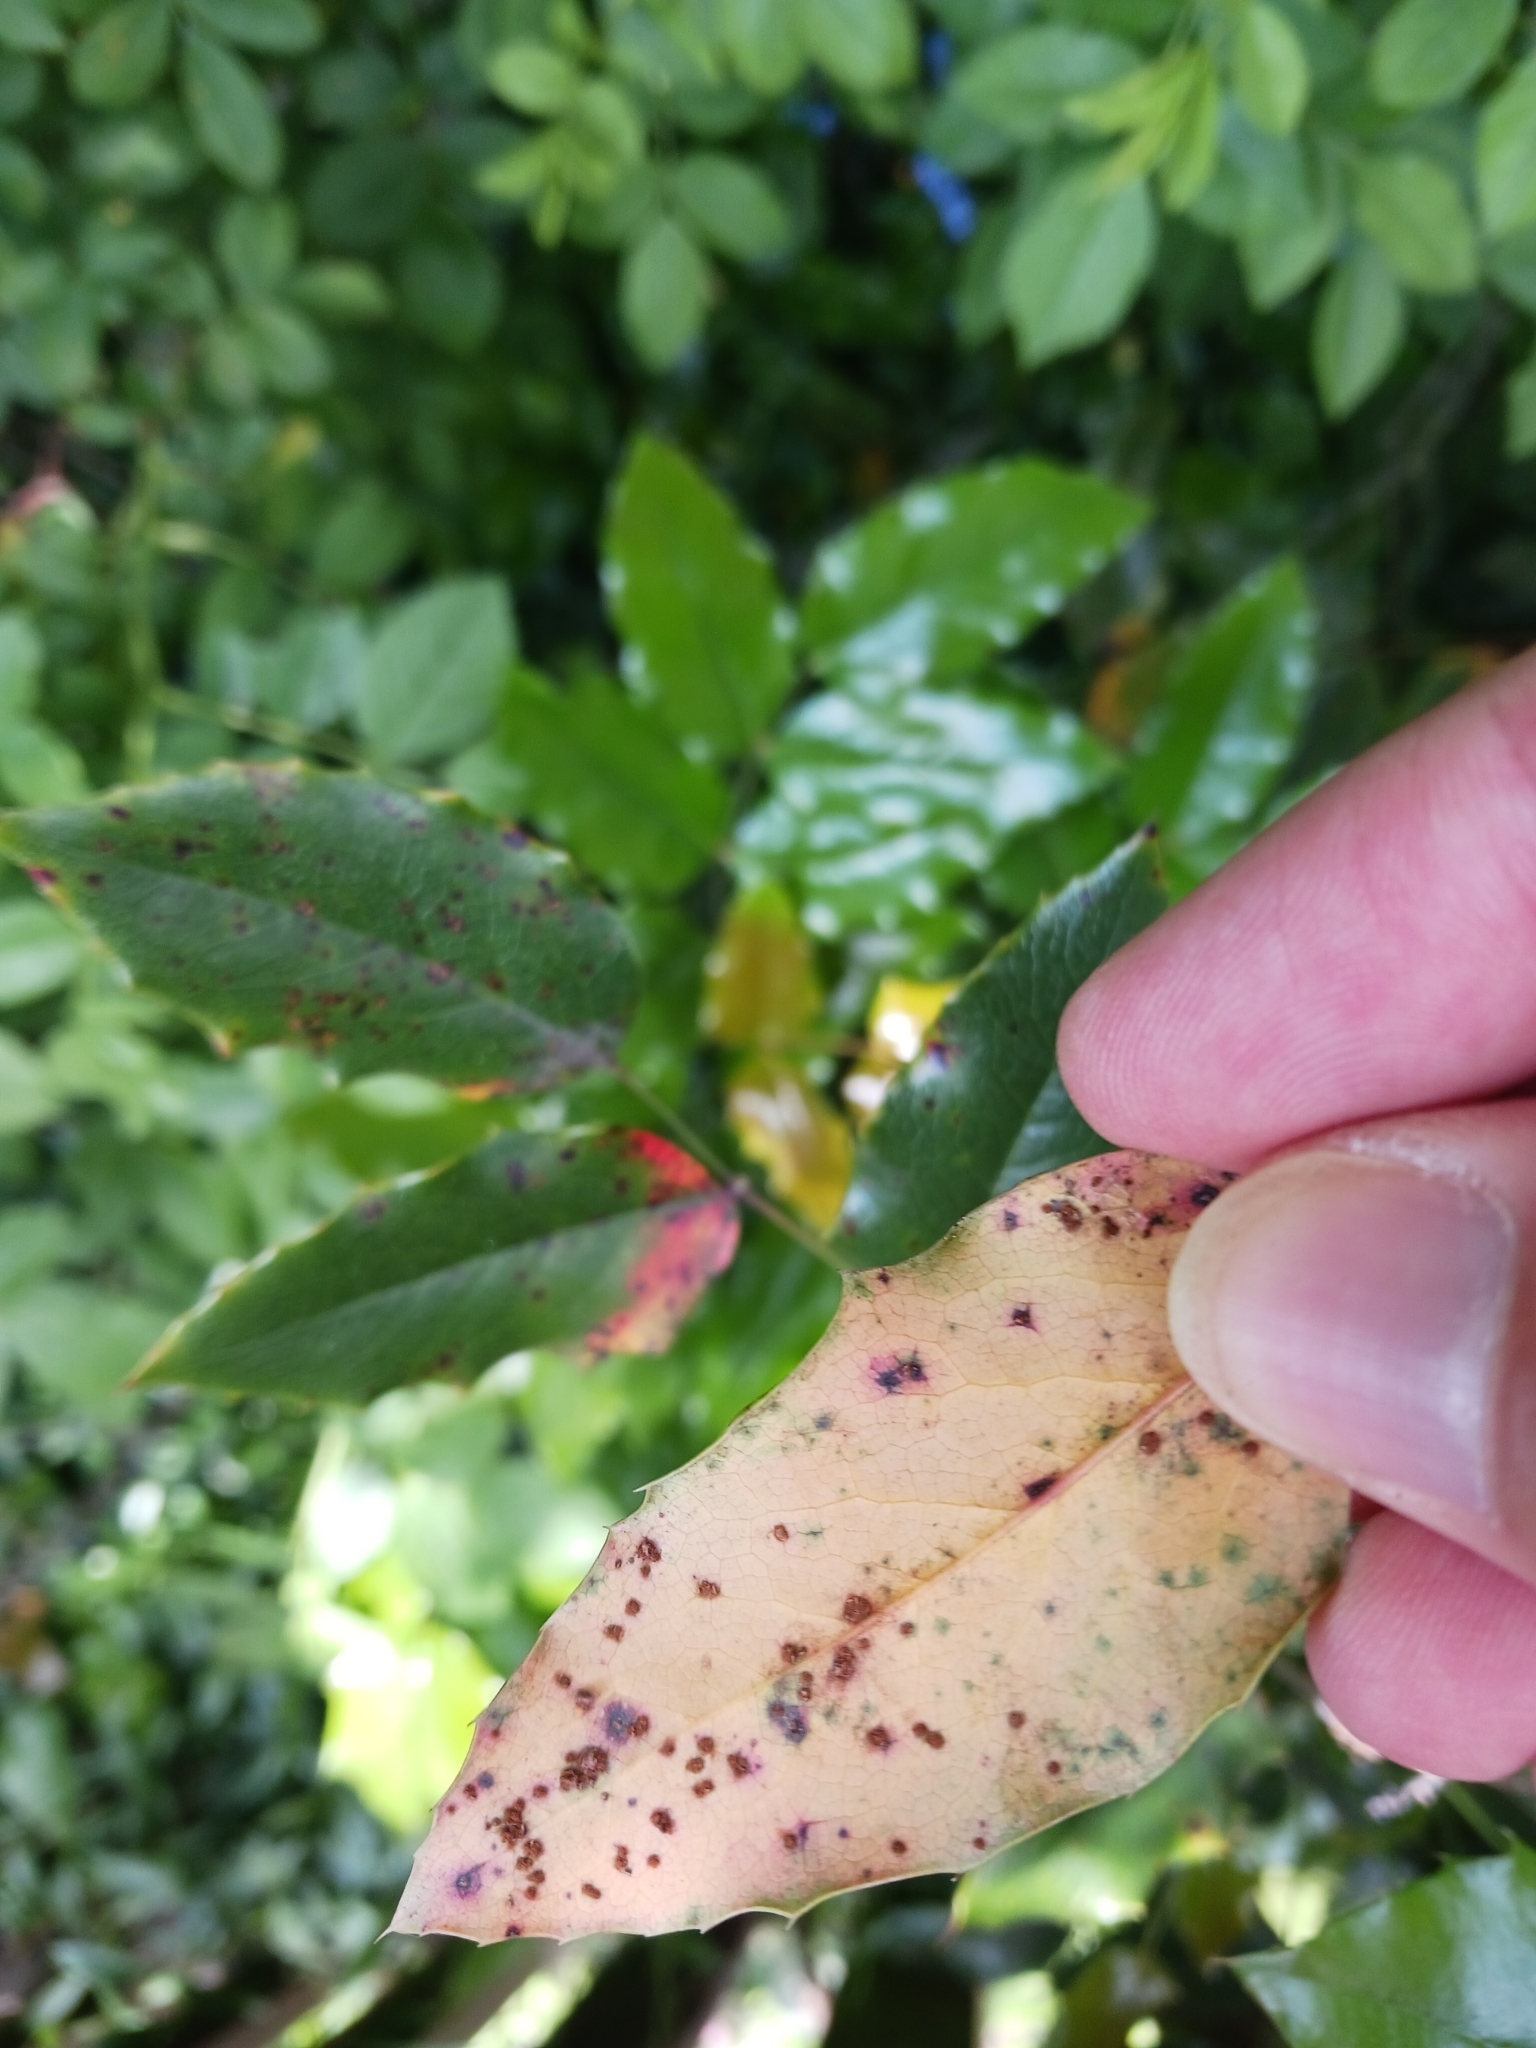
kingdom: Fungi
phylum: Basidiomycota
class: Pucciniomycetes
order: Pucciniales
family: Pucciniaceae
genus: Cumminsiella
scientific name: Cumminsiella mirabilissima
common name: Mahonia rust
